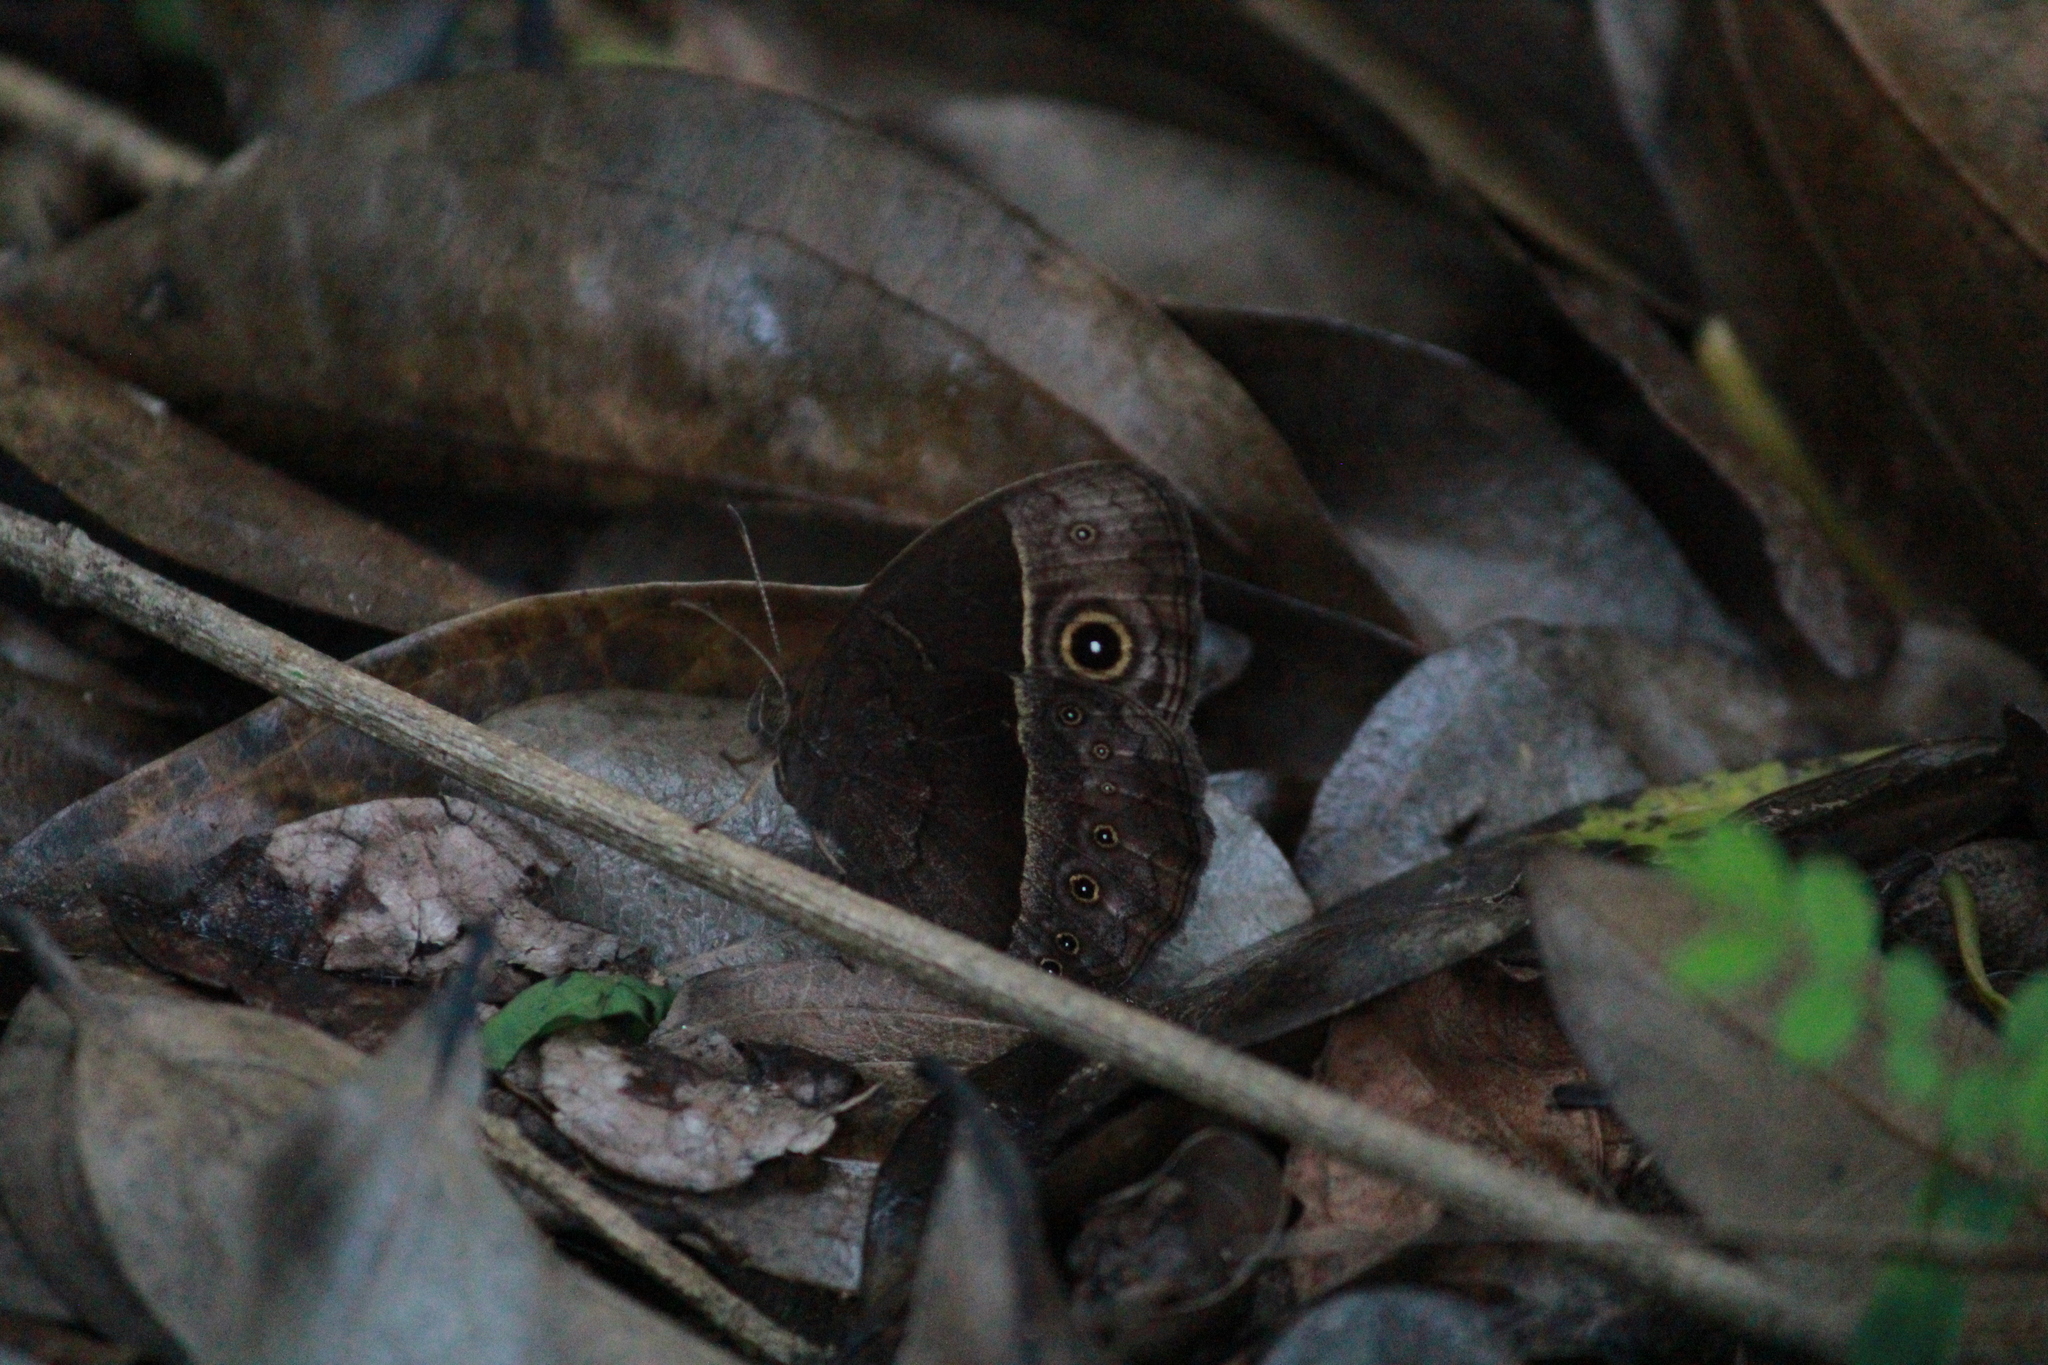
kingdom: Animalia
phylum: Arthropoda
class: Insecta
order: Lepidoptera
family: Nymphalidae
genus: Mycalesis
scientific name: Mycalesis rhacotis
